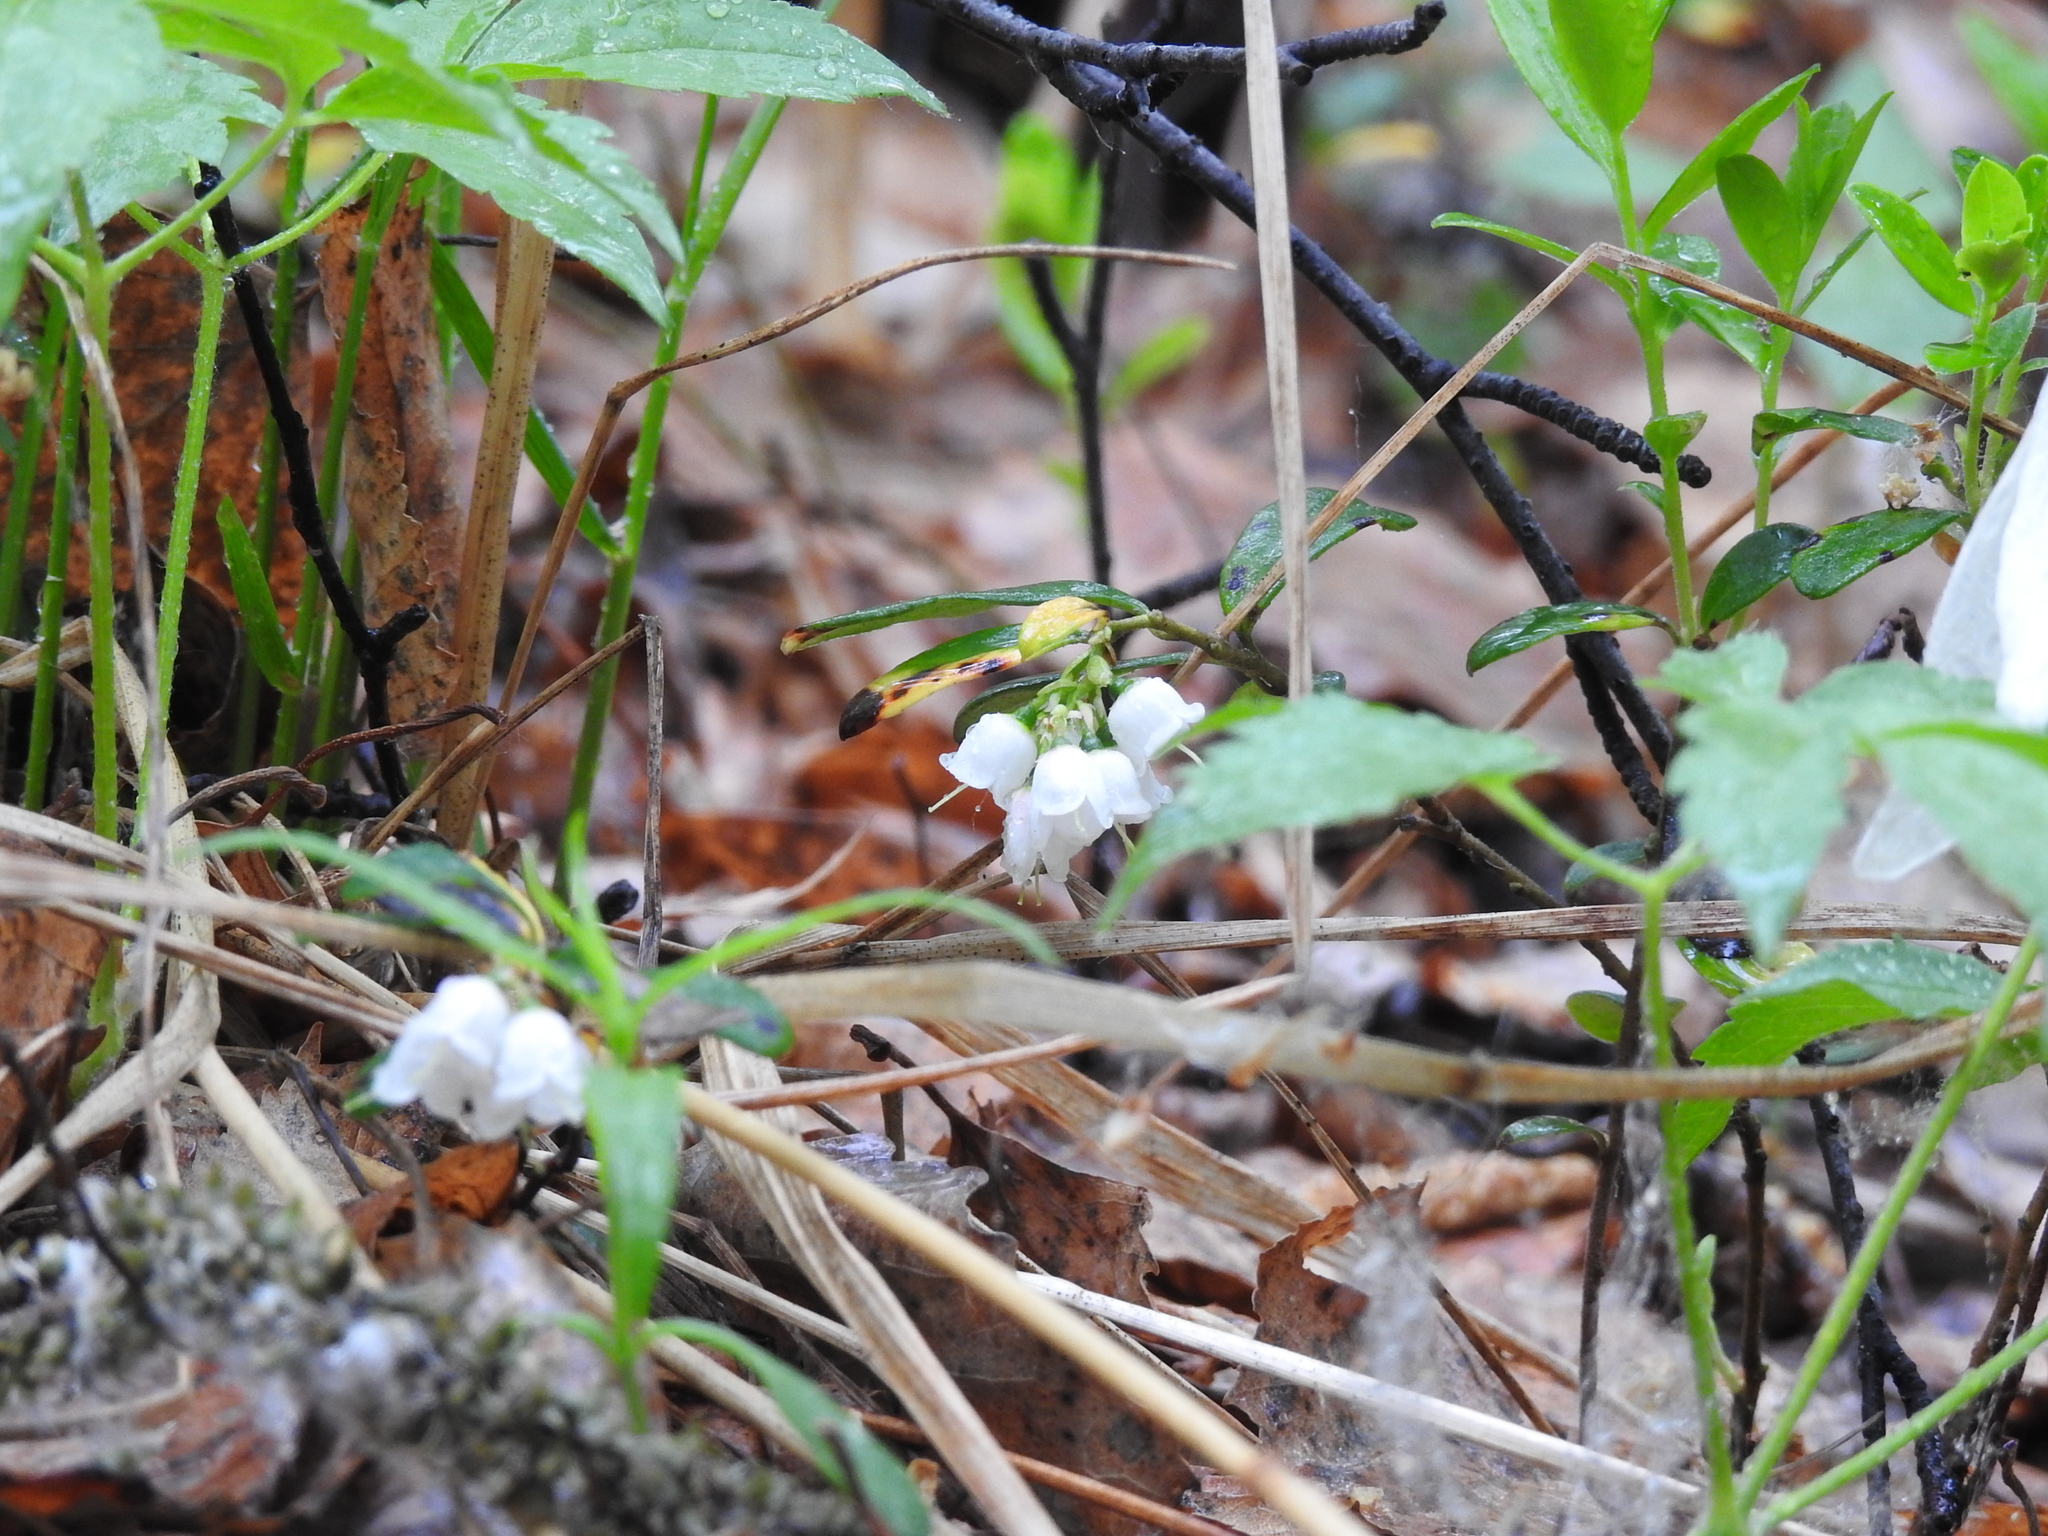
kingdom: Plantae
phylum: Tracheophyta
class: Magnoliopsida
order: Ericales
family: Ericaceae
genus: Vaccinium
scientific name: Vaccinium vitis-idaea
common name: Cowberry
